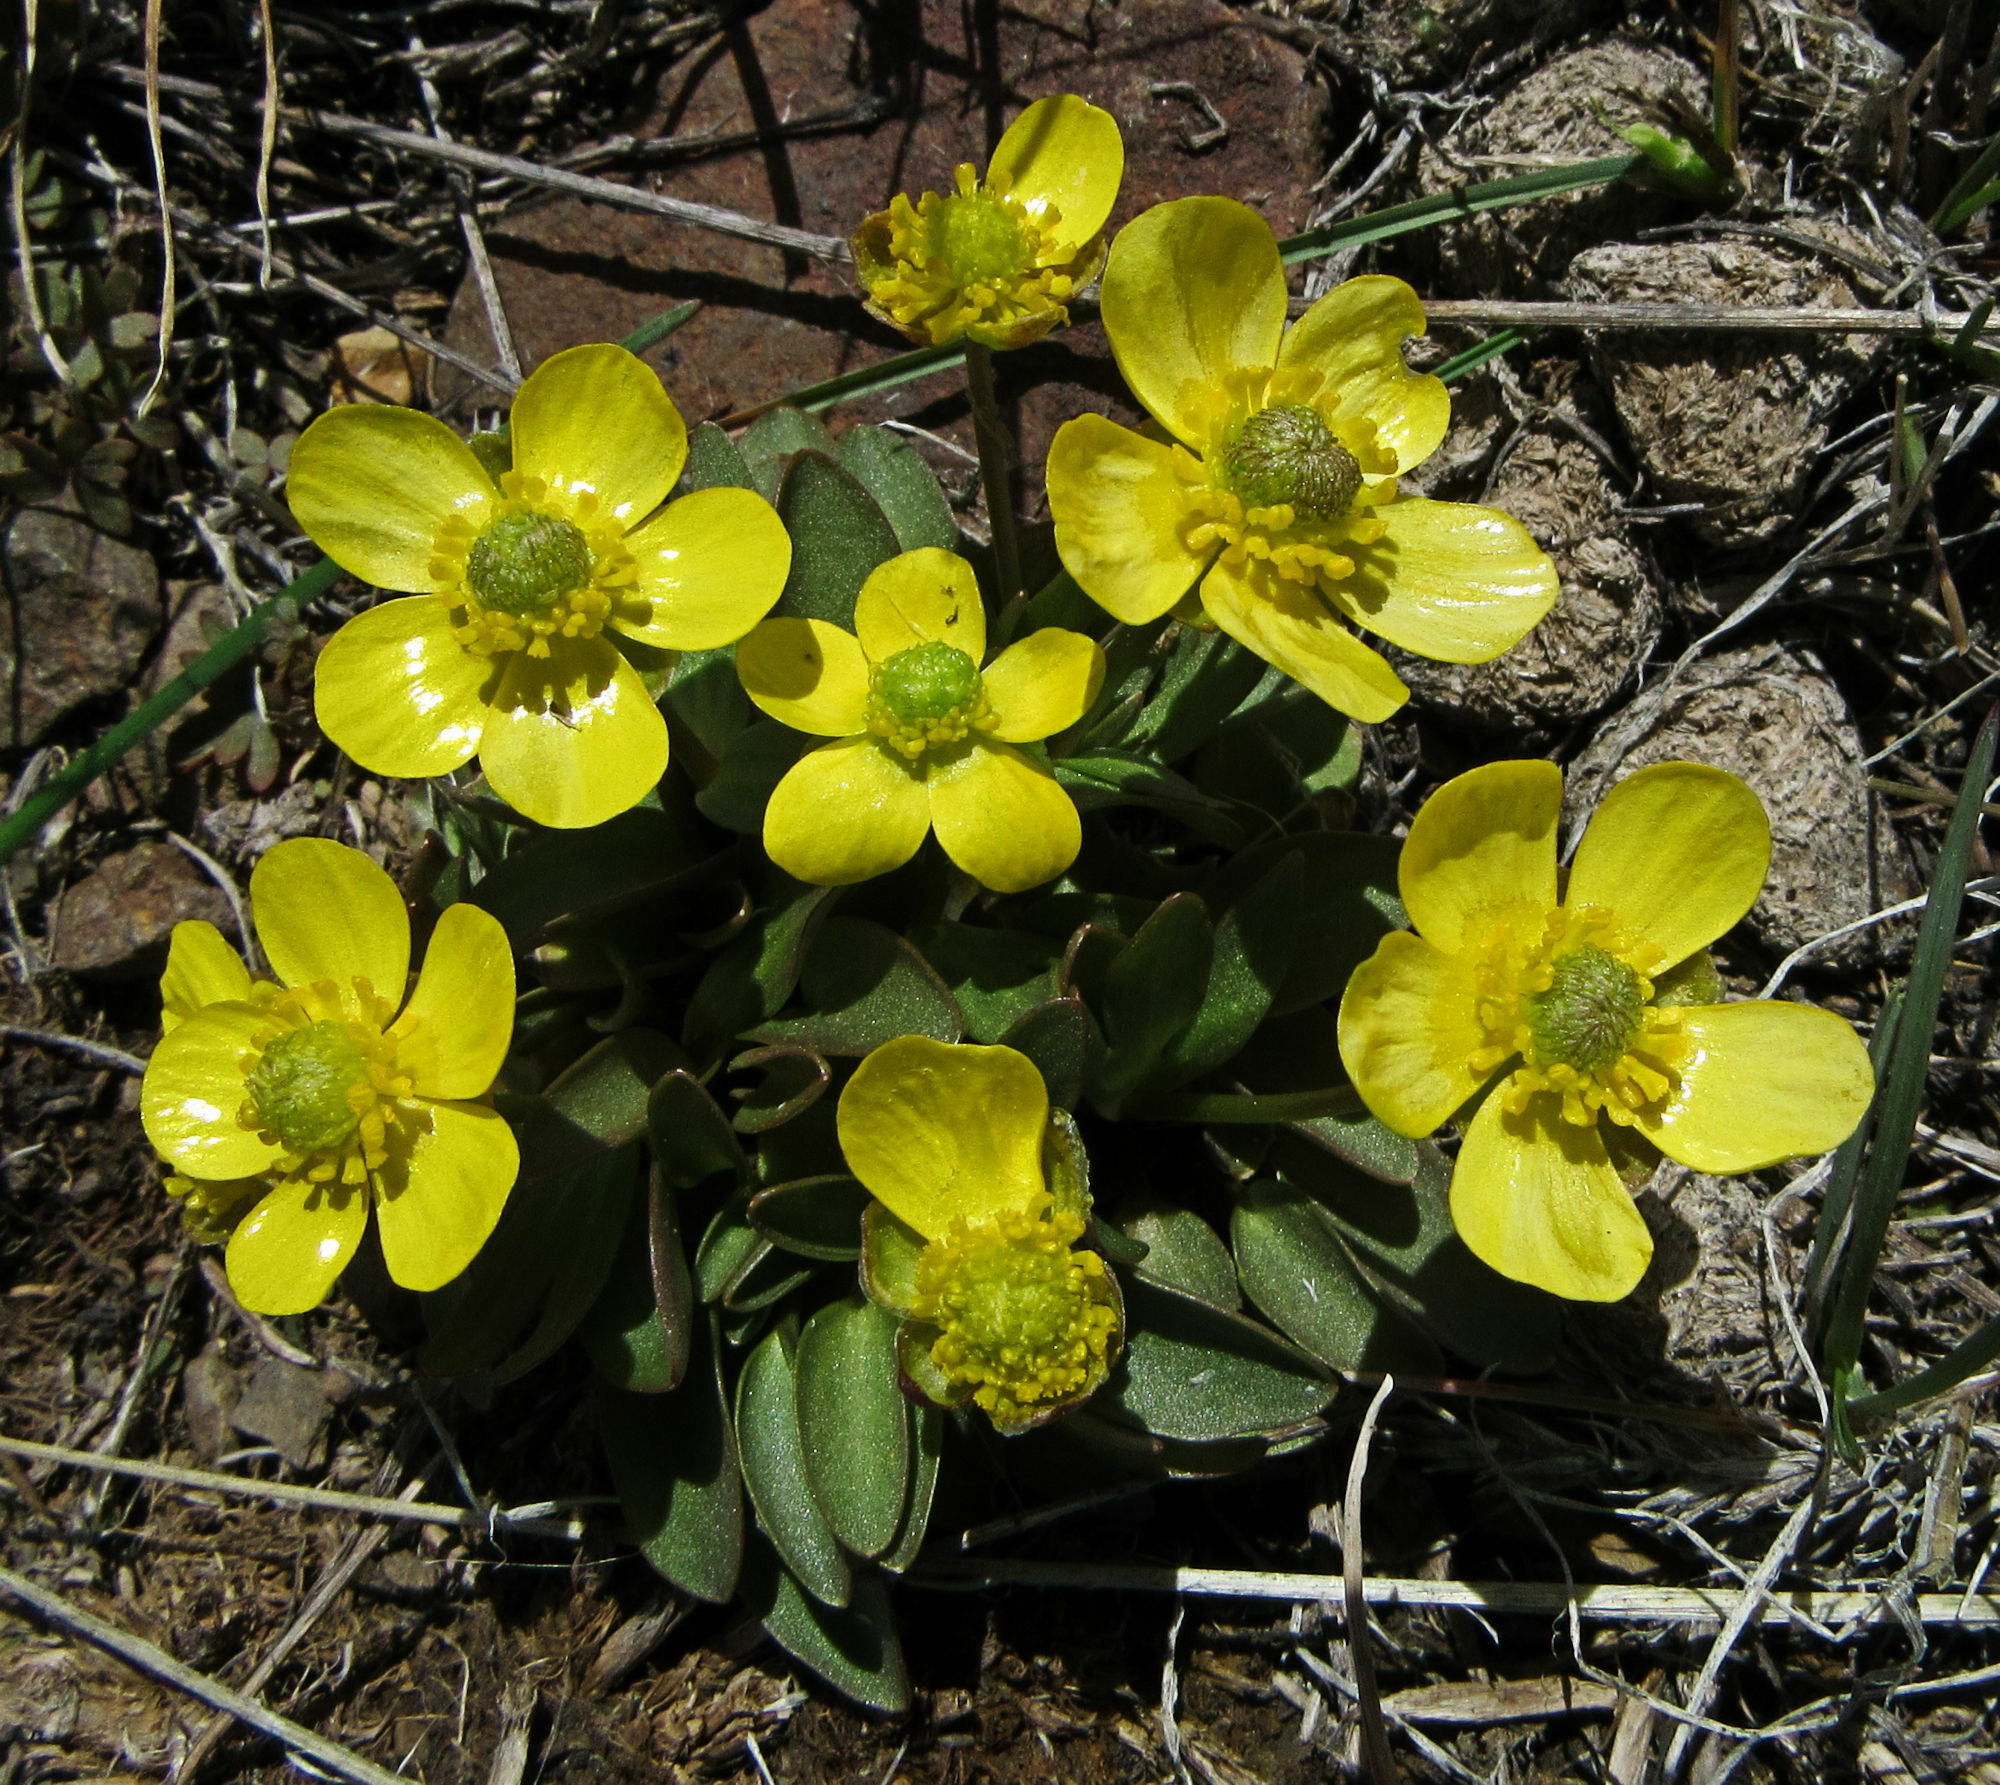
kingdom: Plantae
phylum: Tracheophyta
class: Magnoliopsida
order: Ranunculales
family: Ranunculaceae
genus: Ranunculus
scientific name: Ranunculus glaberrimus
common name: Sagebrush buttercup
